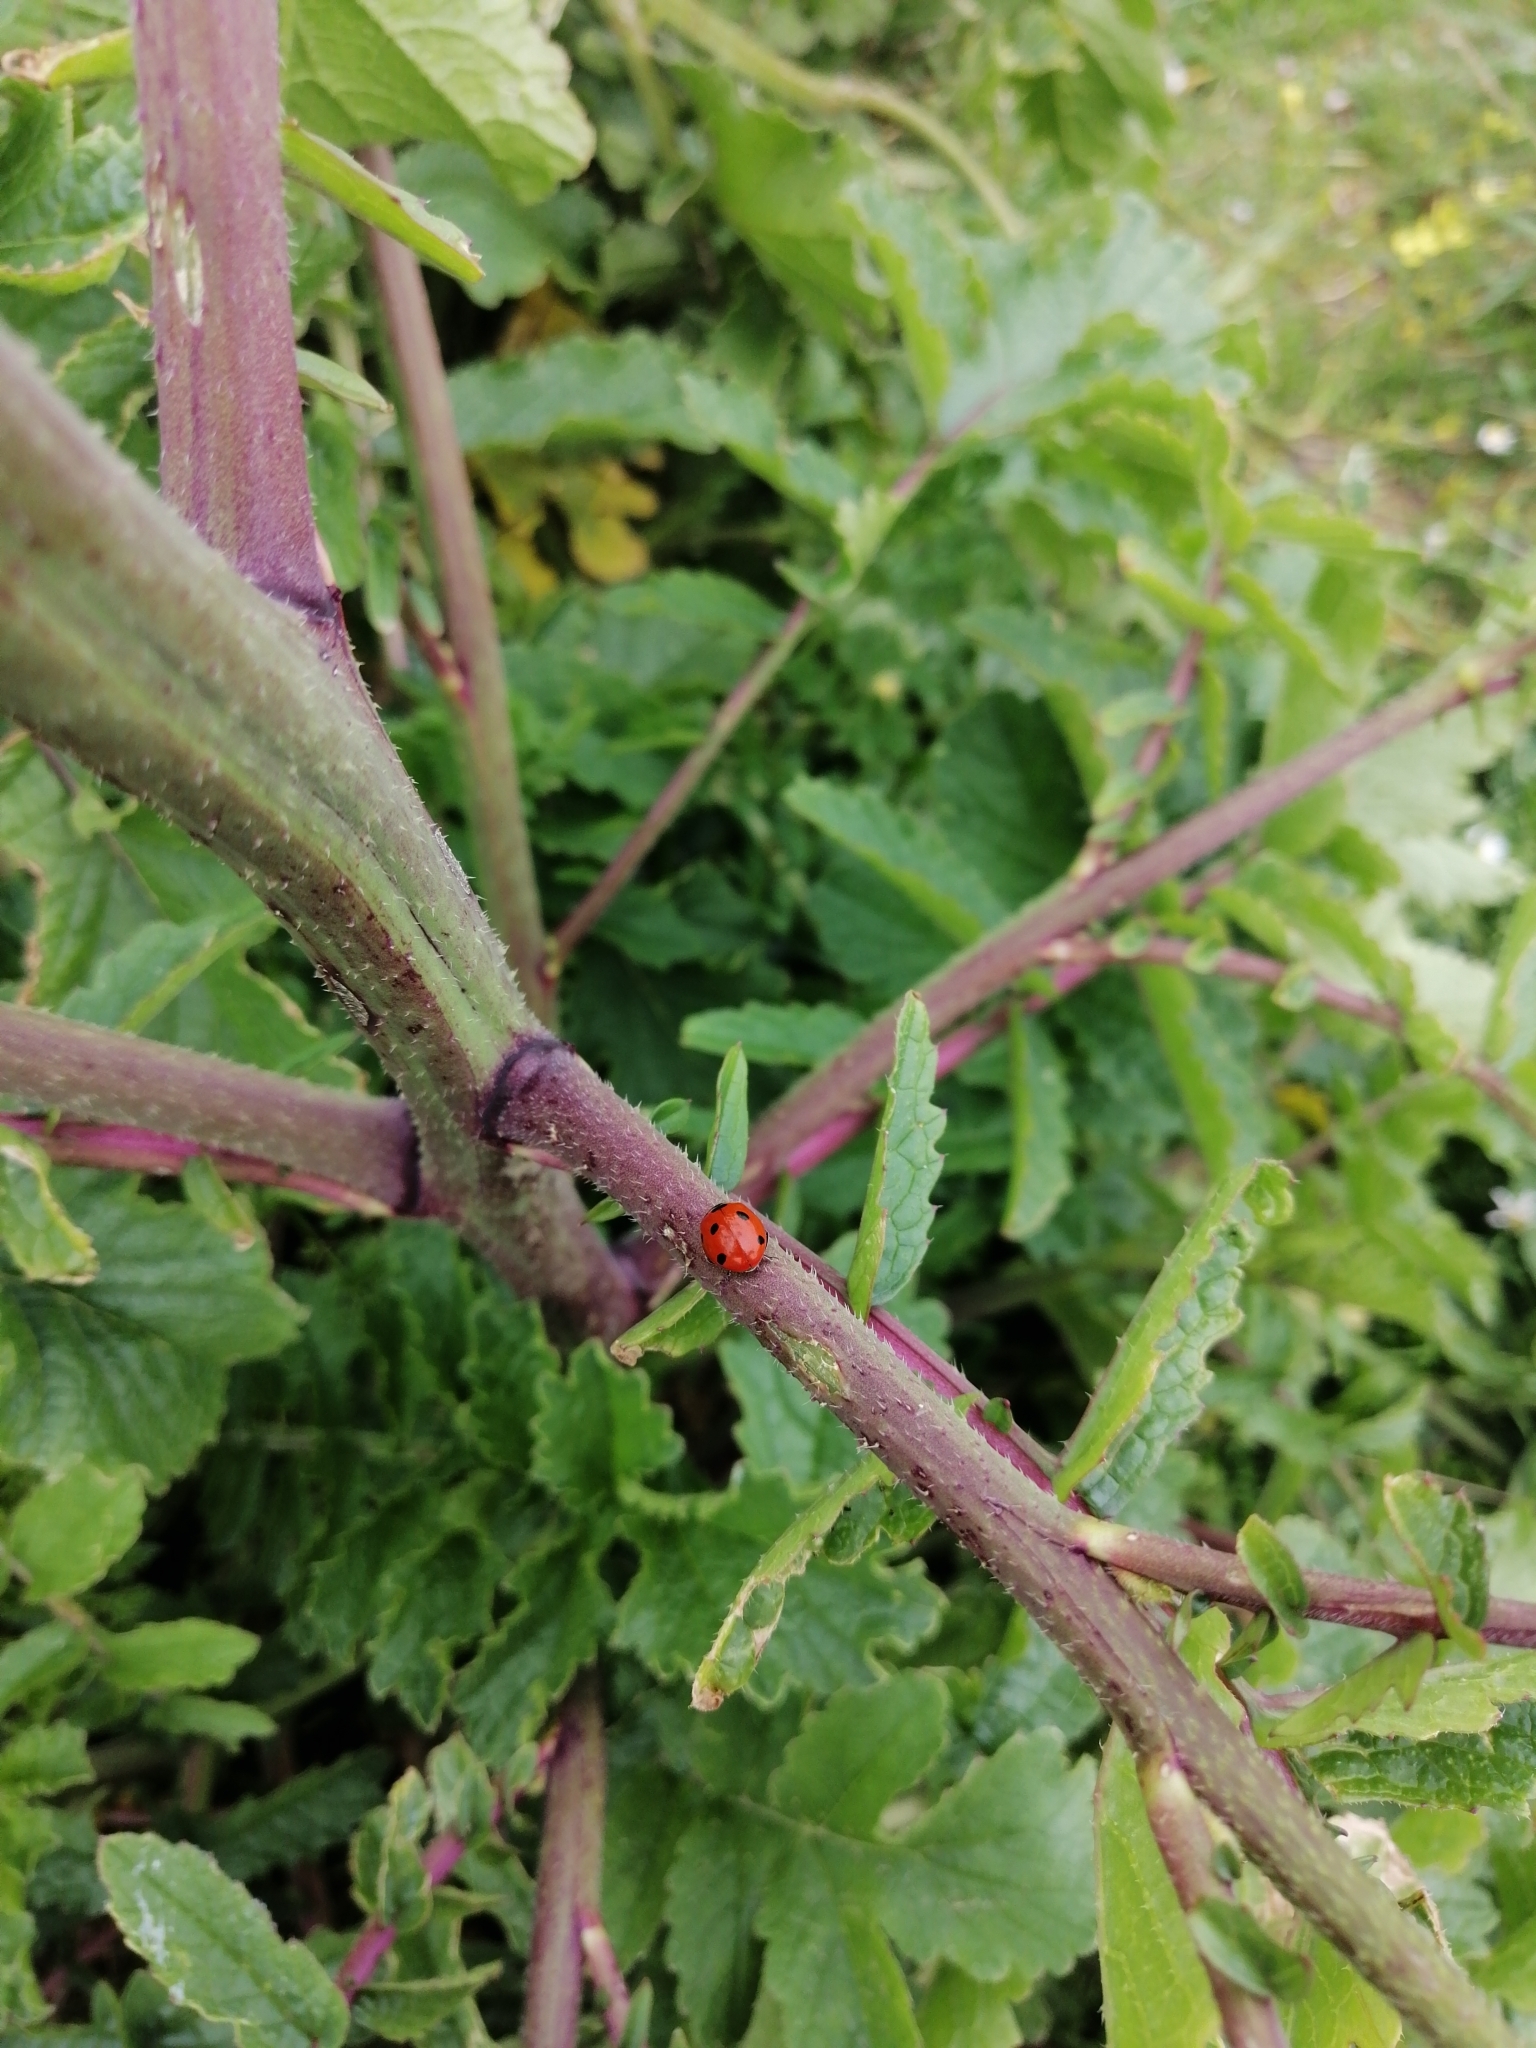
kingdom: Animalia
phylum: Arthropoda
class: Insecta
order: Coleoptera
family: Coccinellidae
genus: Coccinella
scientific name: Coccinella septempunctata
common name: Sevenspotted lady beetle
